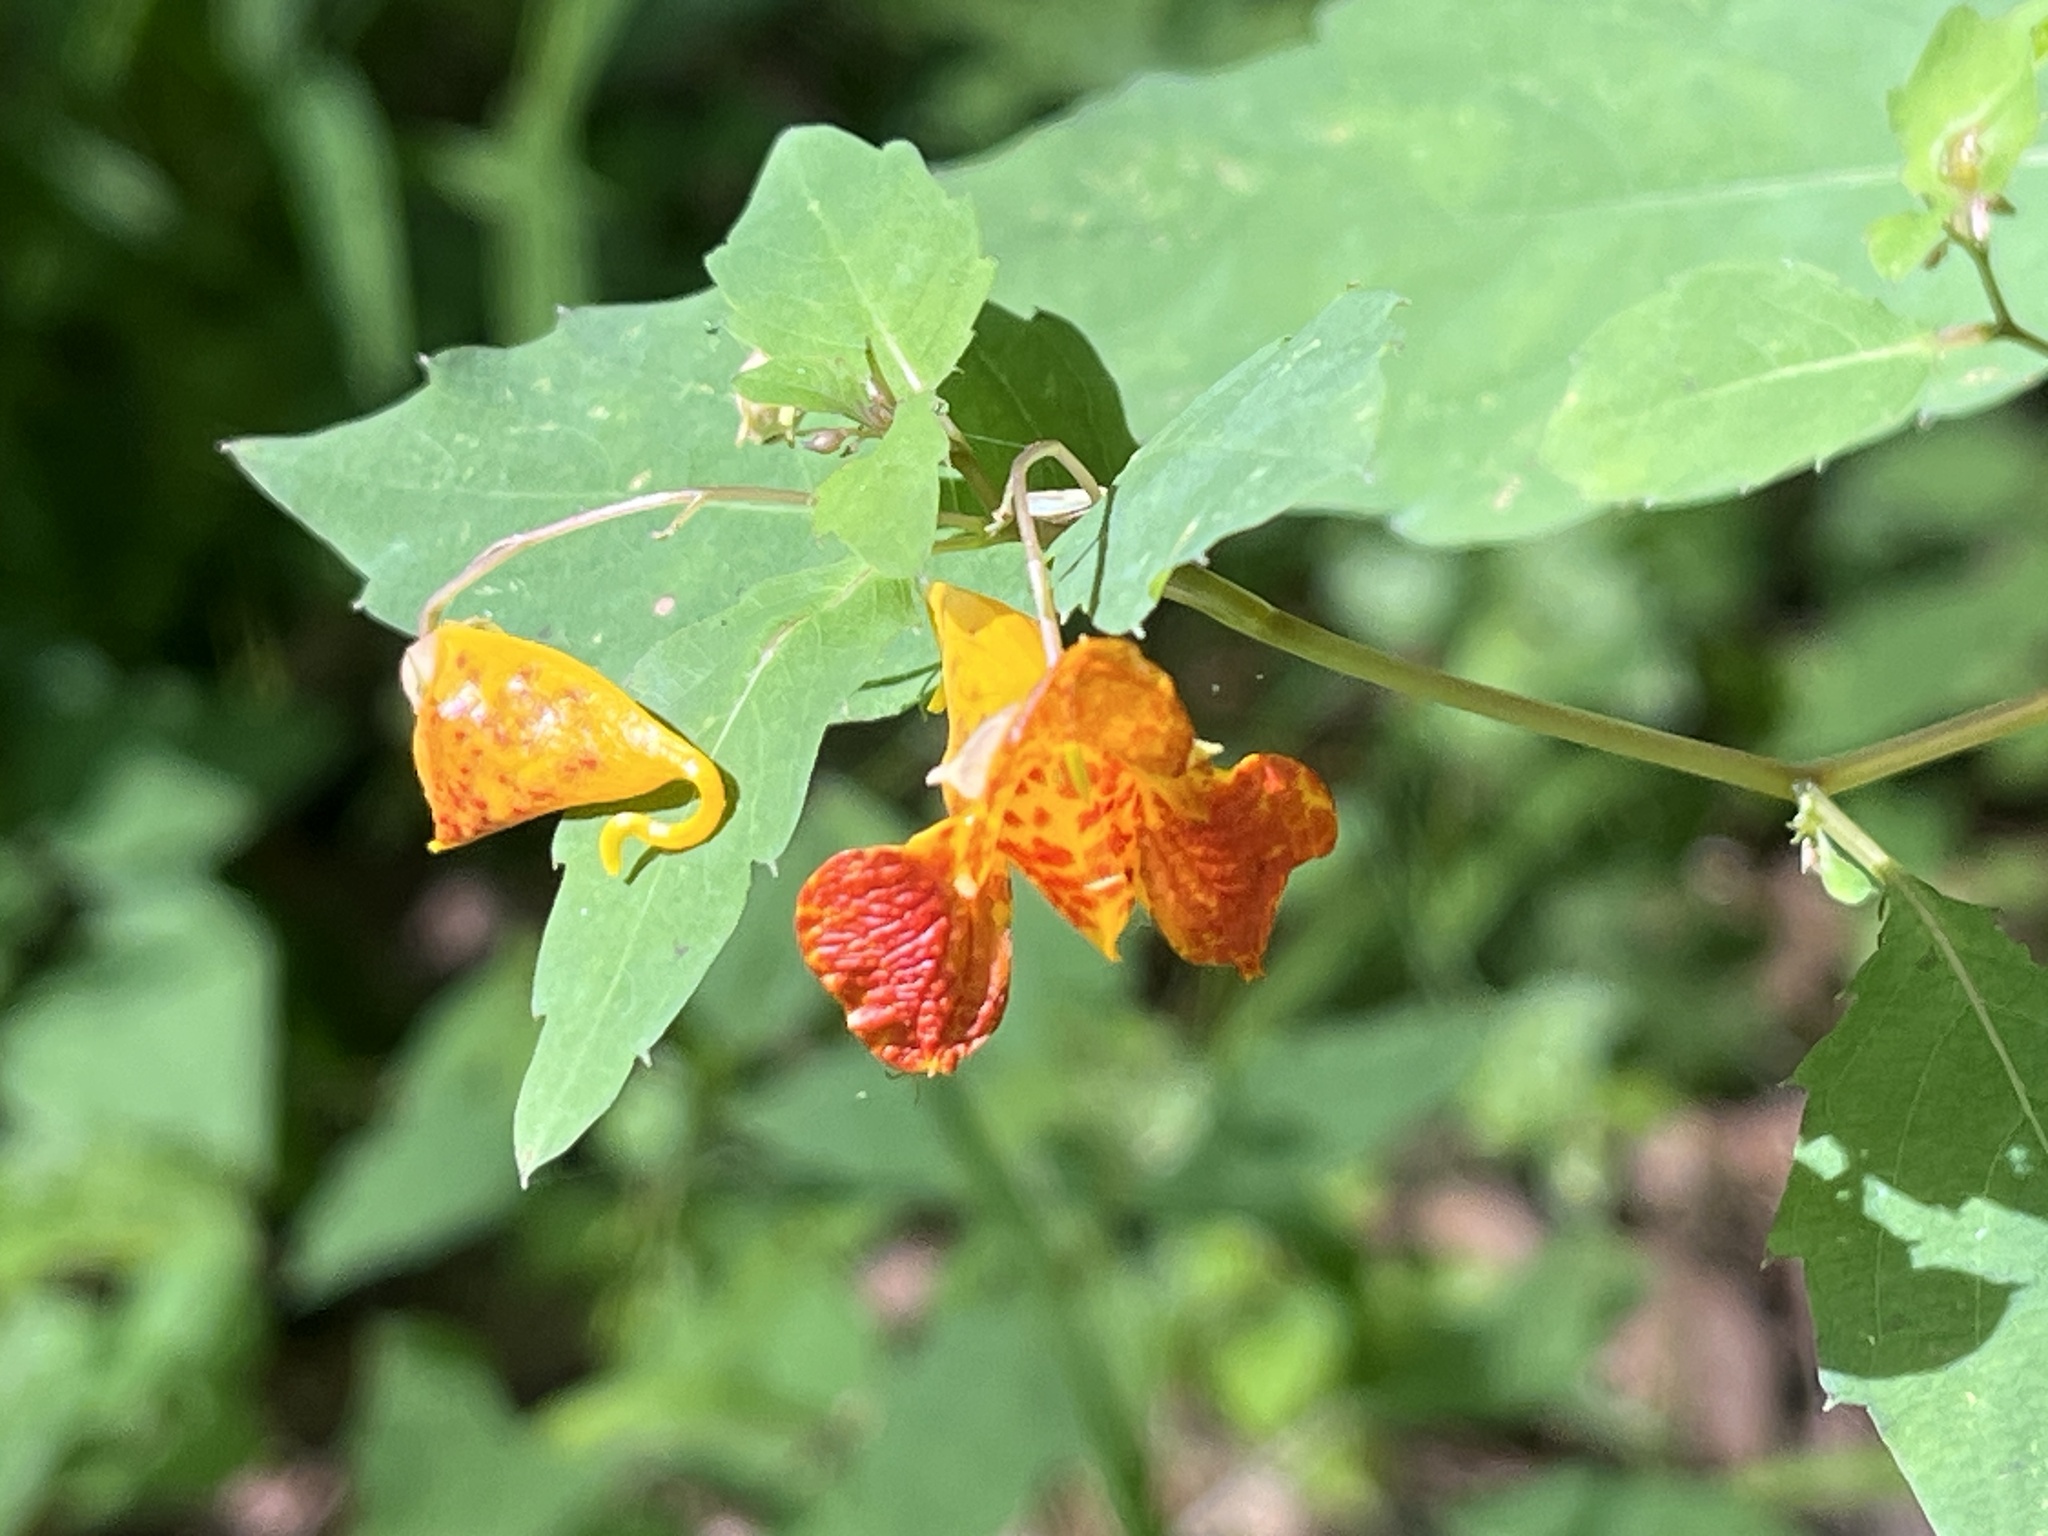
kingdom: Plantae
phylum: Tracheophyta
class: Magnoliopsida
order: Ericales
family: Balsaminaceae
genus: Impatiens
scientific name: Impatiens capensis
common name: Orange balsam
